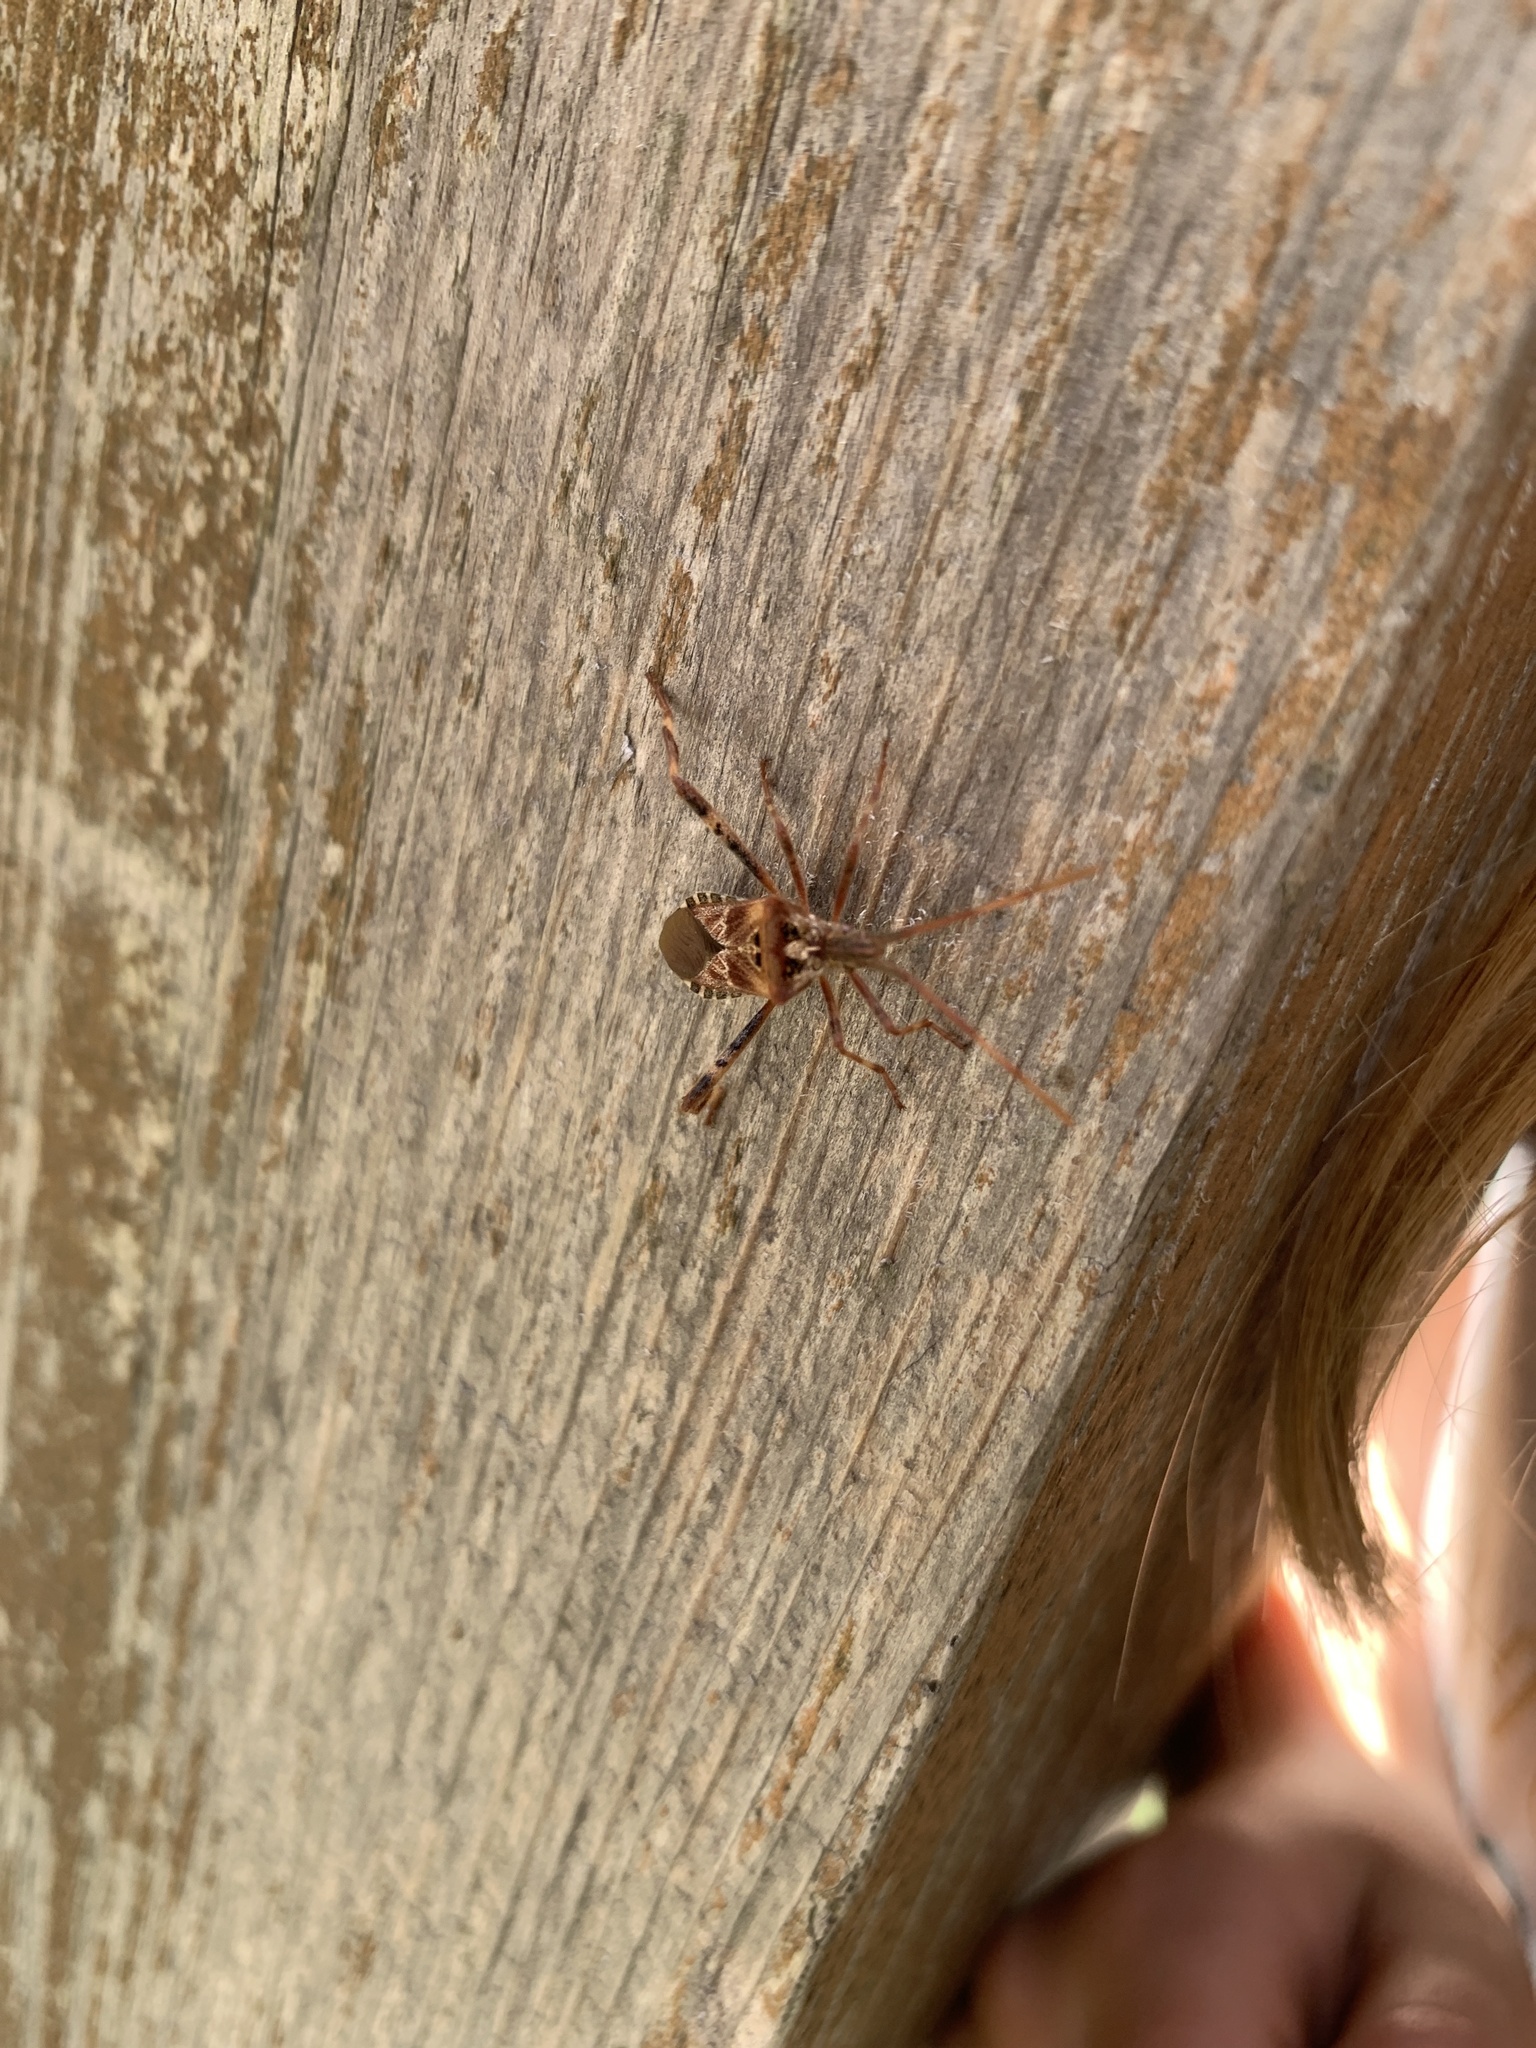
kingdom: Animalia
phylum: Arthropoda
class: Insecta
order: Hemiptera
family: Coreidae
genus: Leptoglossus
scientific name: Leptoglossus occidentalis
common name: Western conifer-seed bug
